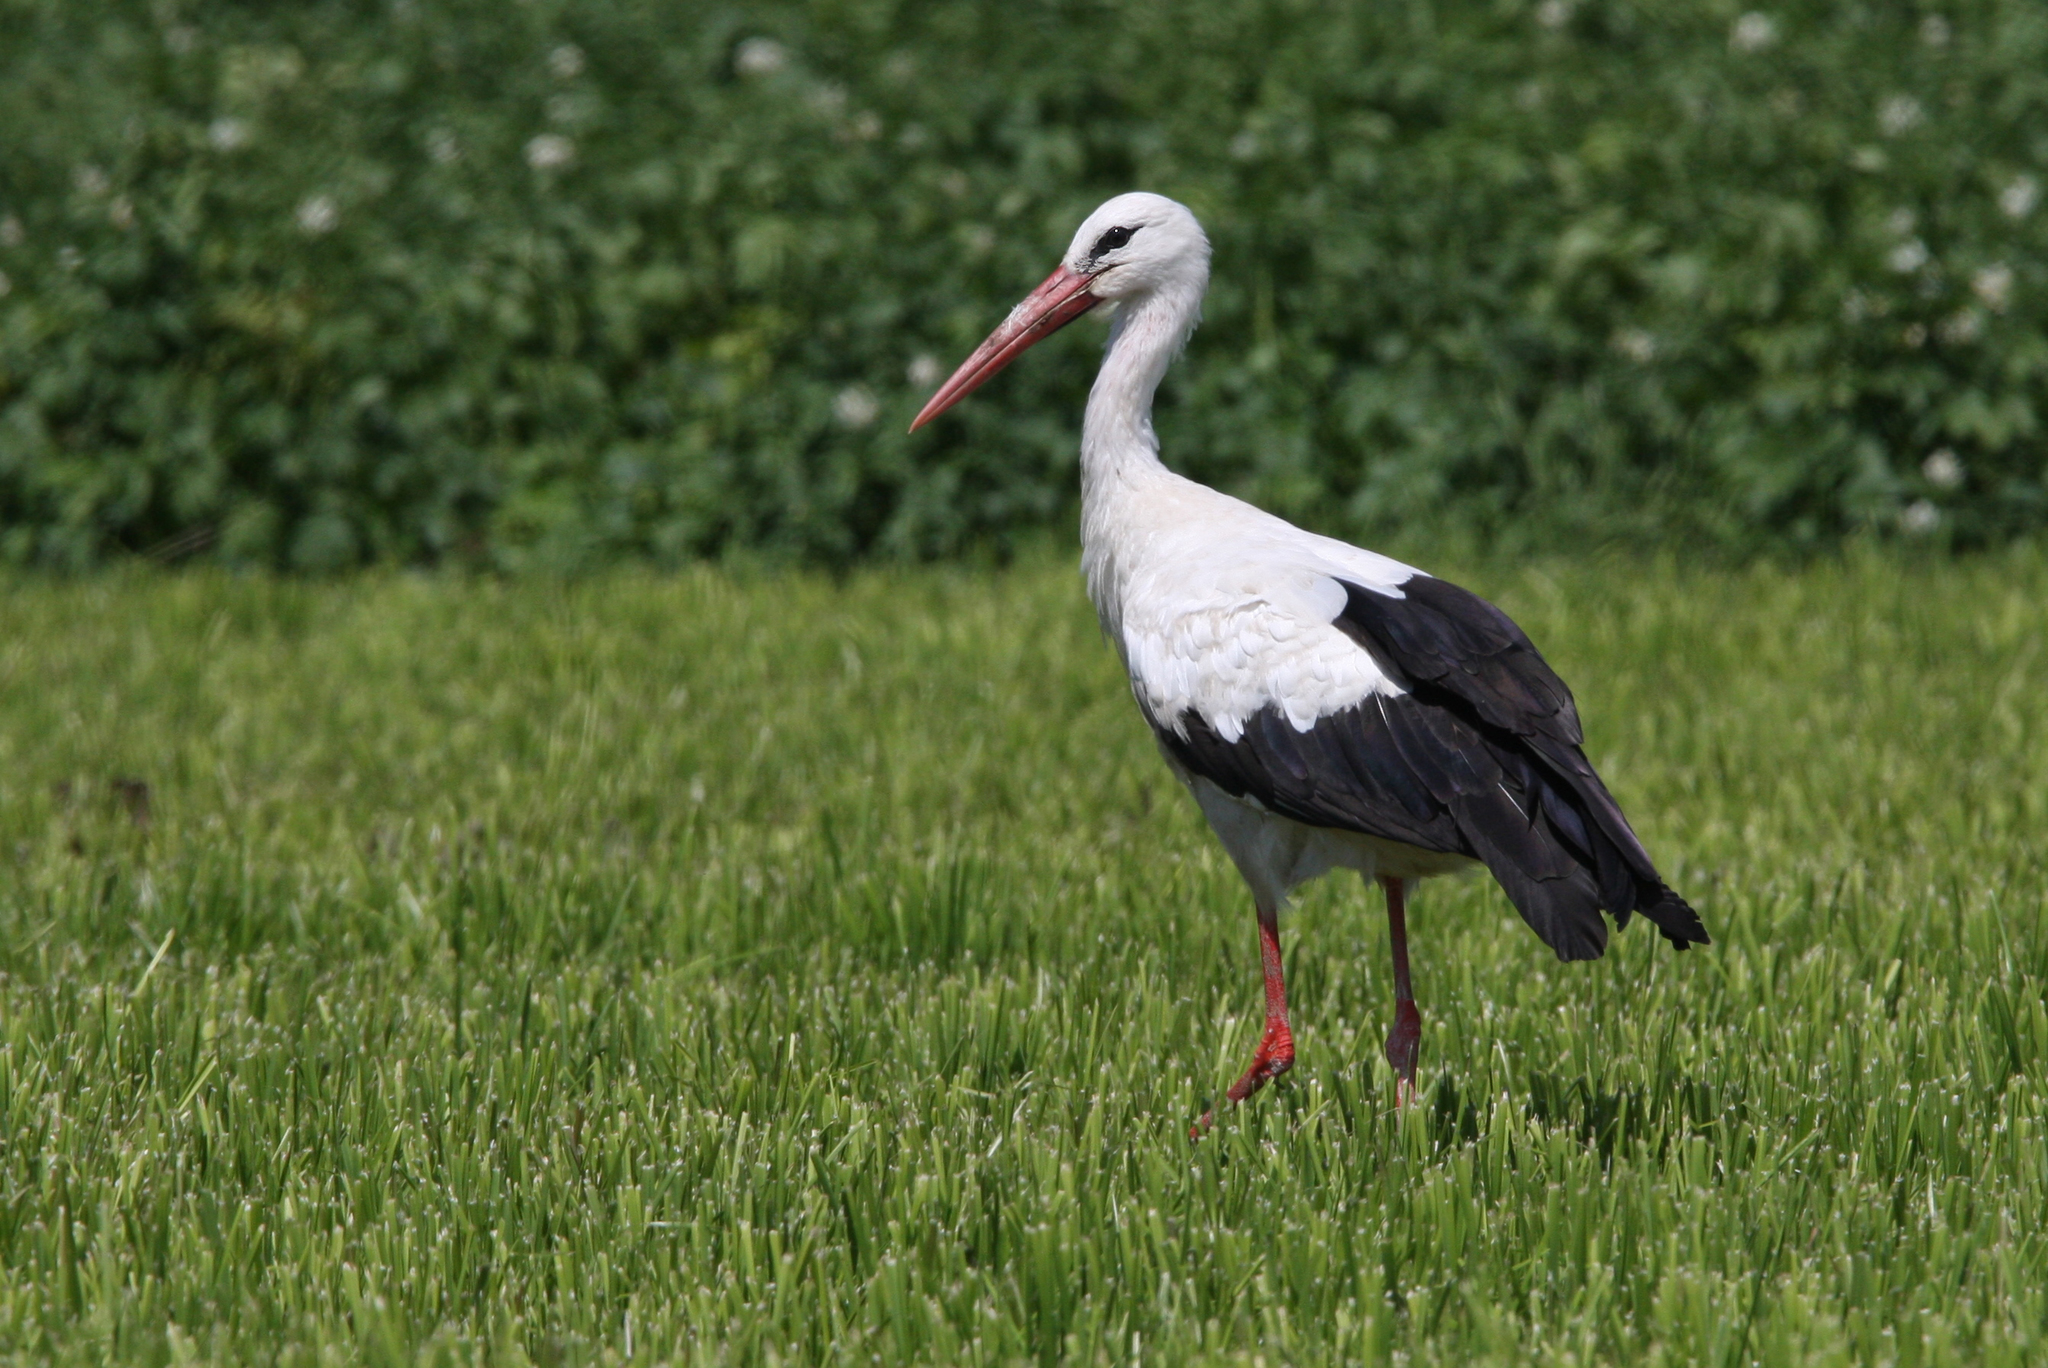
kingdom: Animalia
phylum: Chordata
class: Aves
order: Ciconiiformes
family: Ciconiidae
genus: Ciconia
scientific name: Ciconia ciconia
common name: White stork
